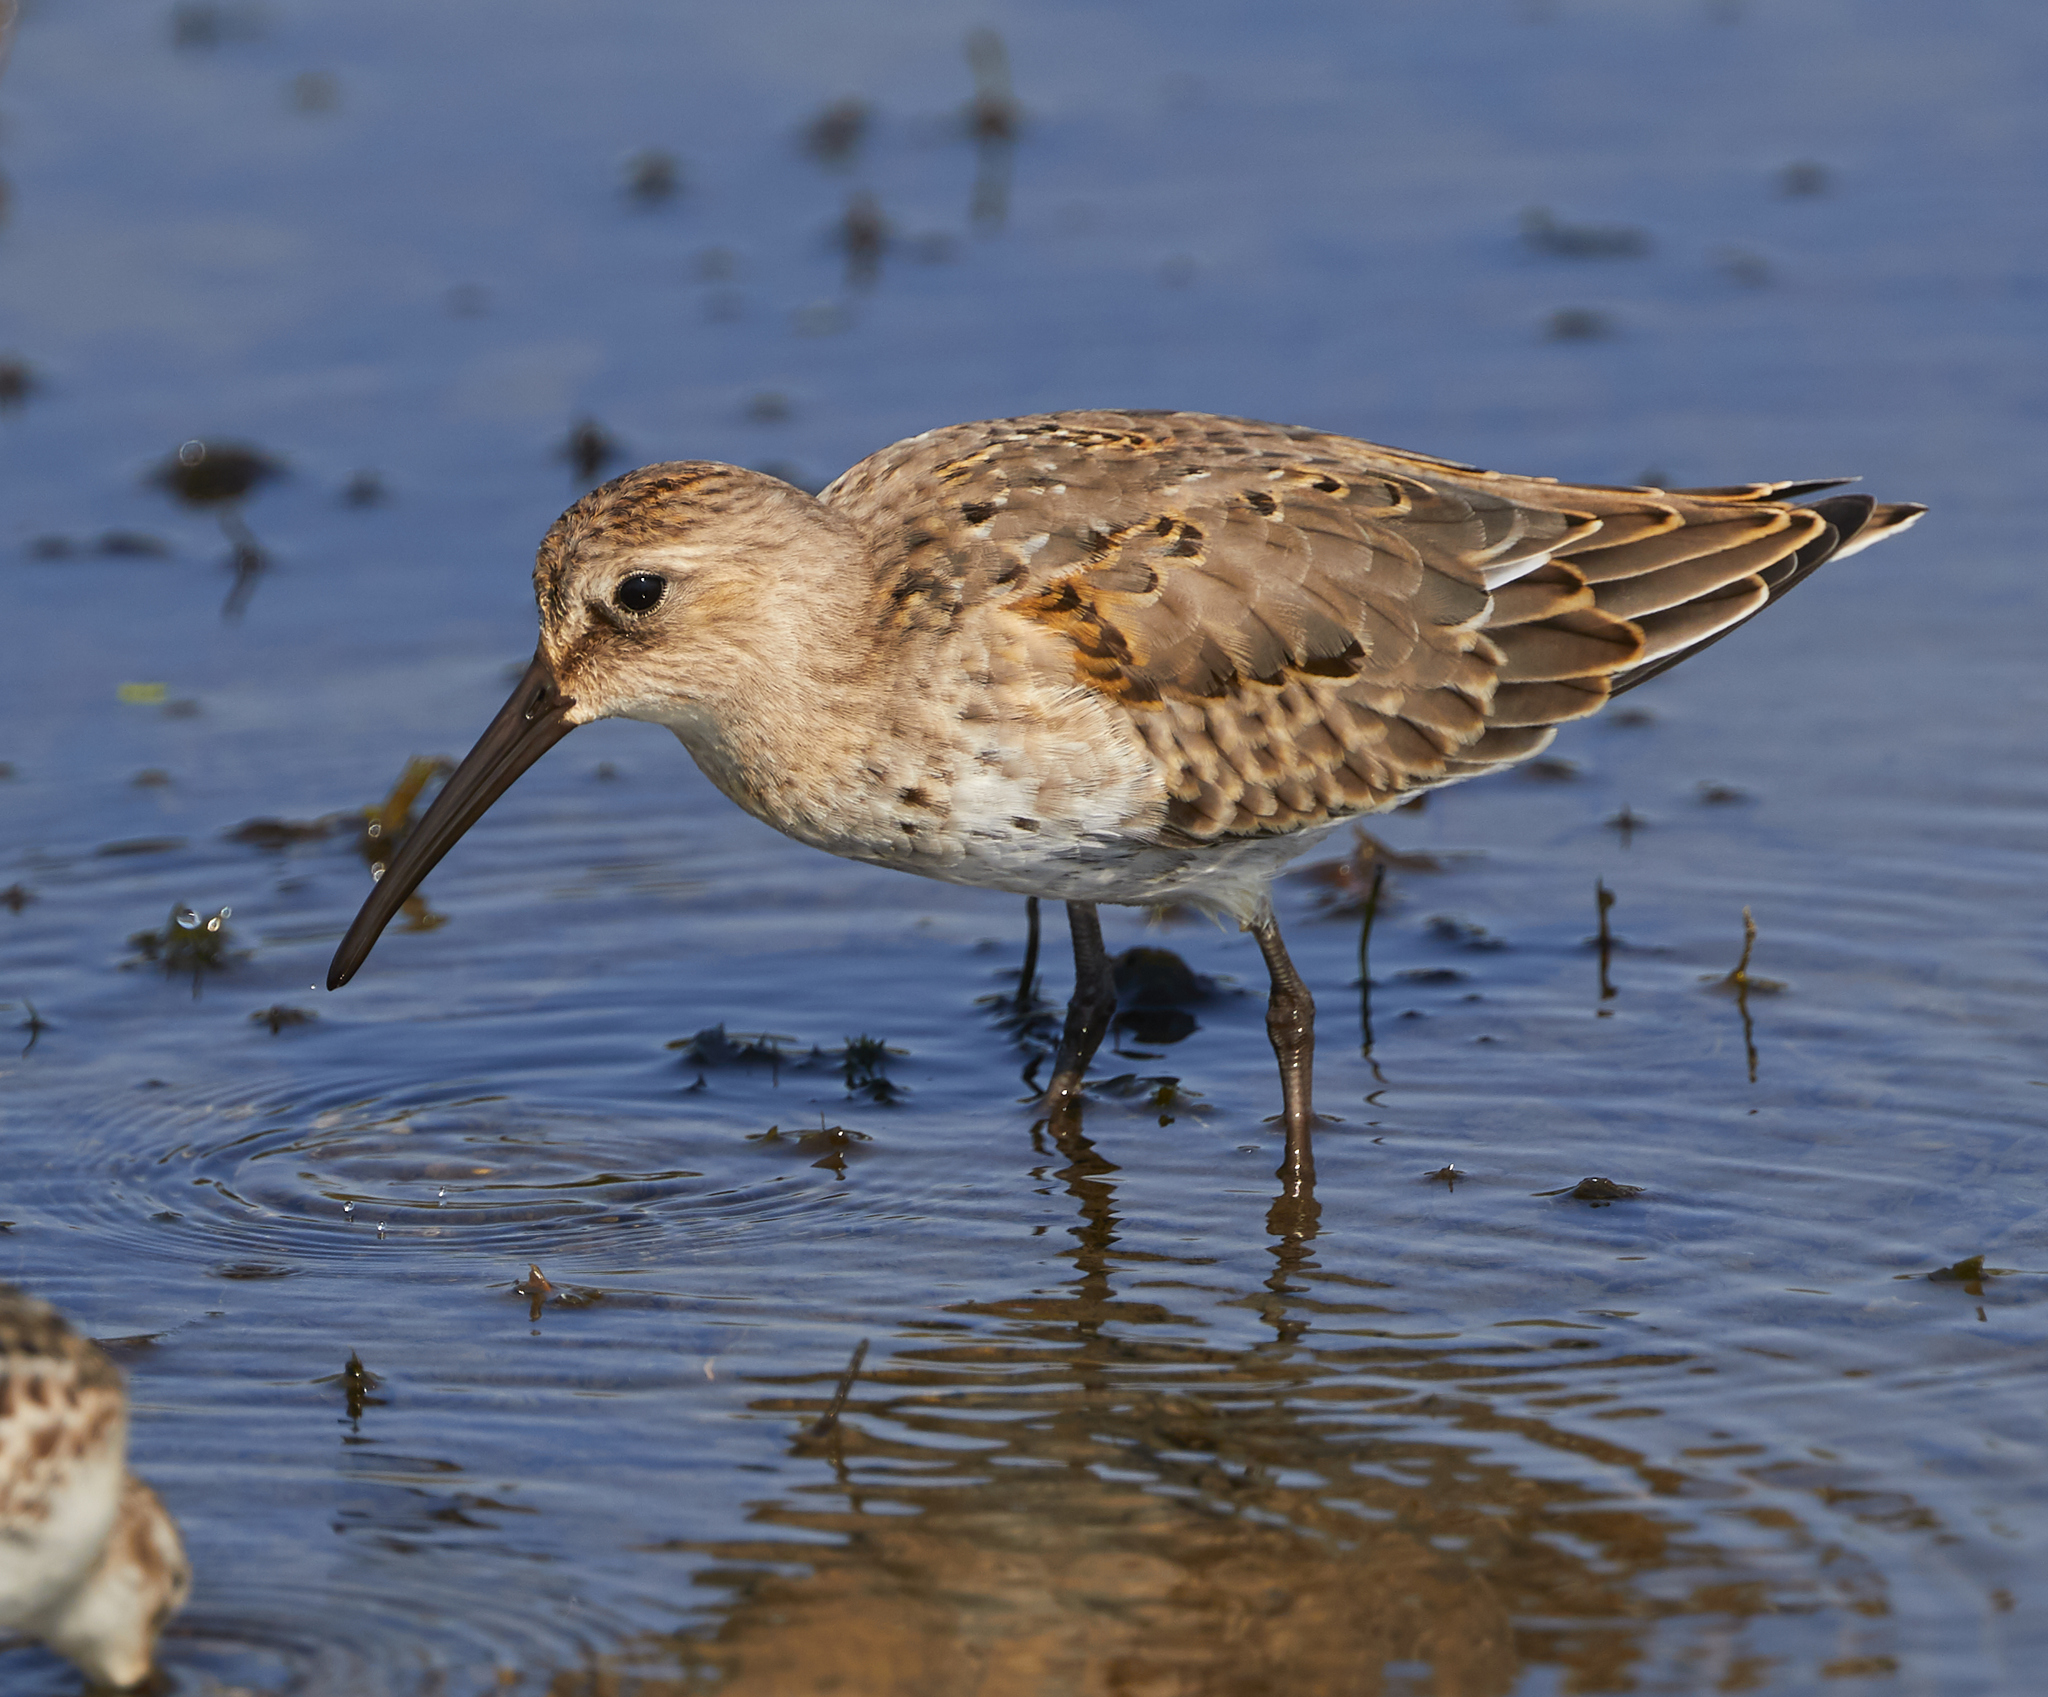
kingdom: Animalia
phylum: Chordata
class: Aves
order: Charadriiformes
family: Scolopacidae
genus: Calidris
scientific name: Calidris alpina
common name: Dunlin
